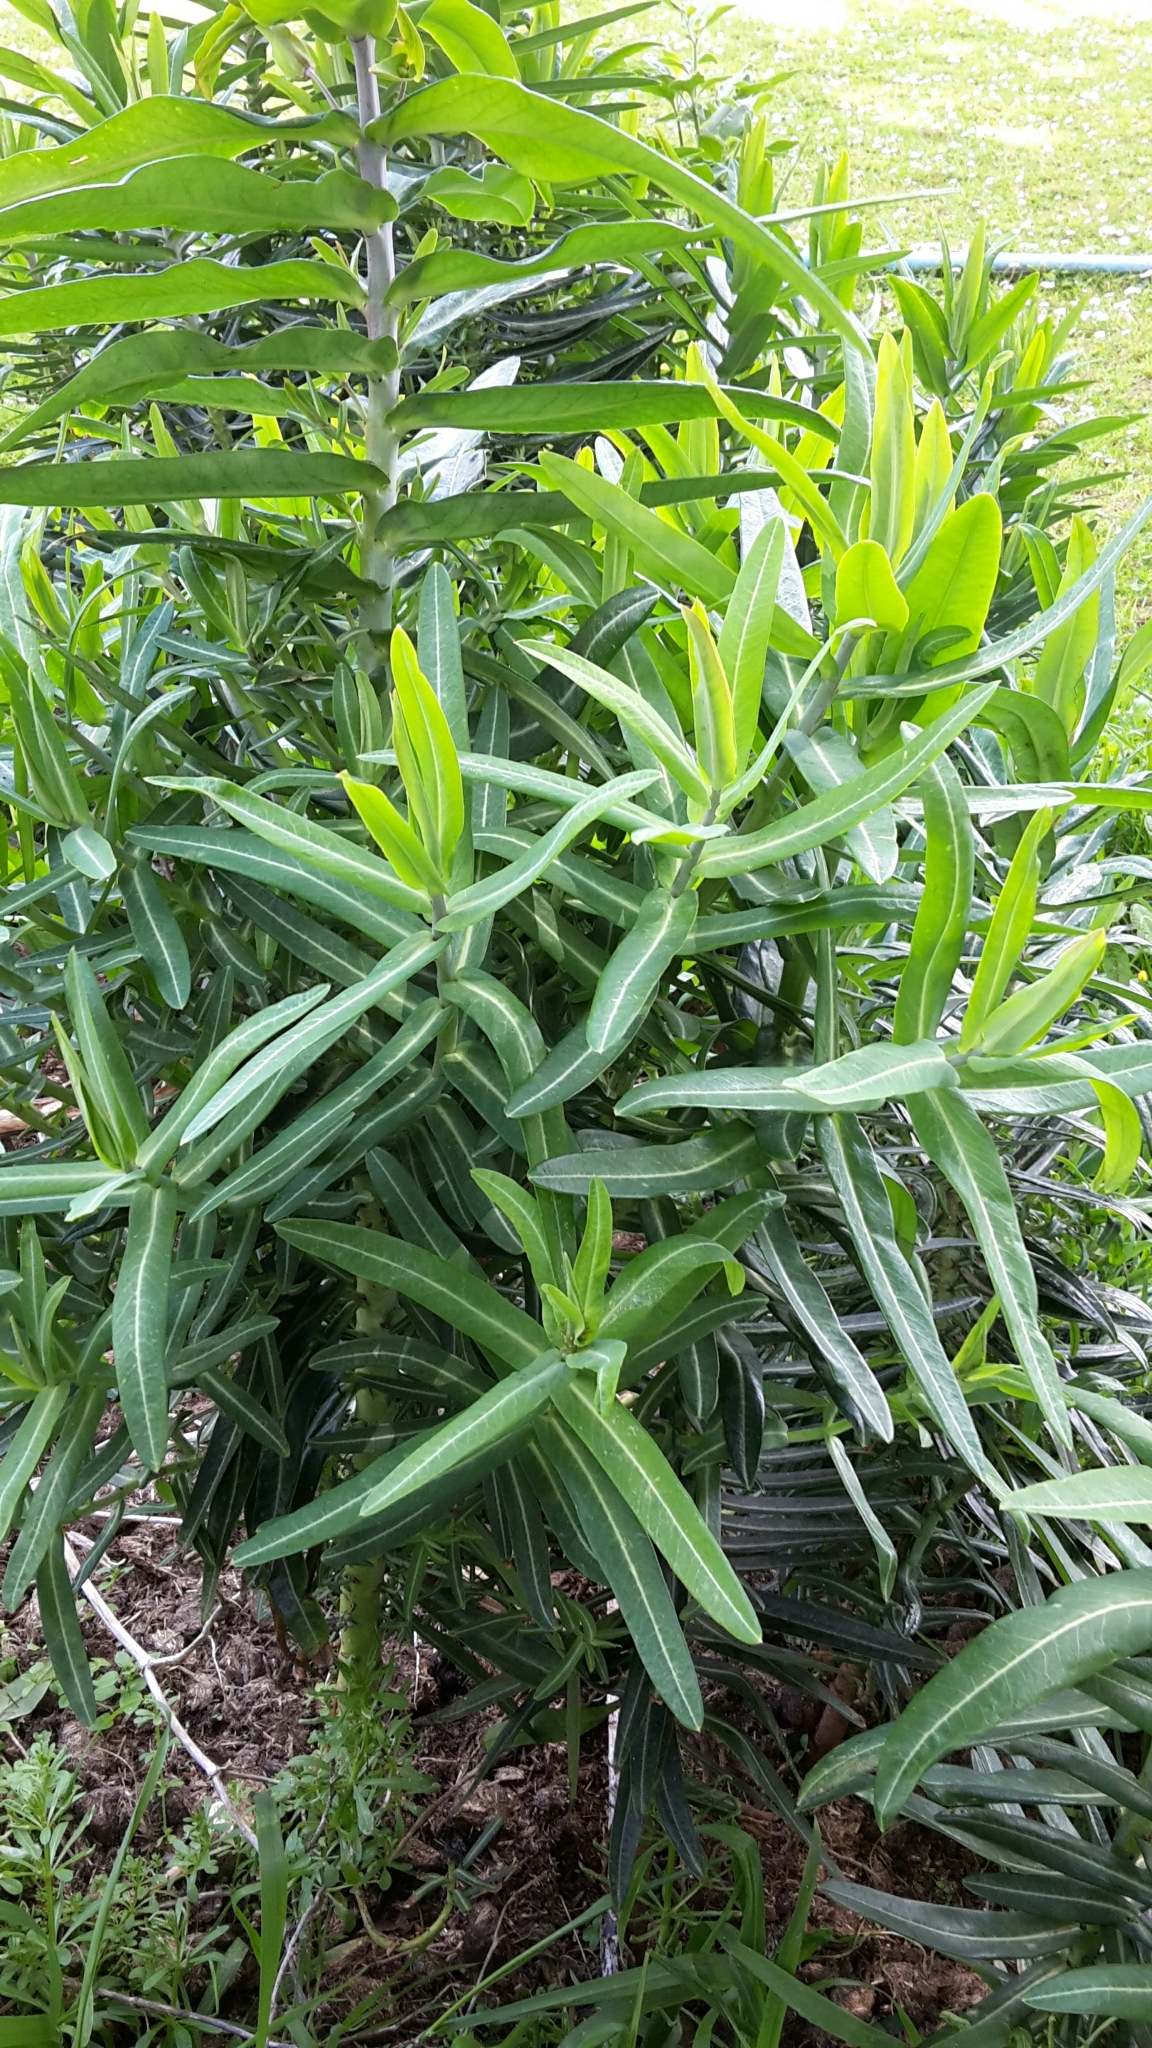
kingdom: Plantae
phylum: Tracheophyta
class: Magnoliopsida
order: Malpighiales
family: Euphorbiaceae
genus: Euphorbia
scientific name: Euphorbia lathyris
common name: Caper spurge
